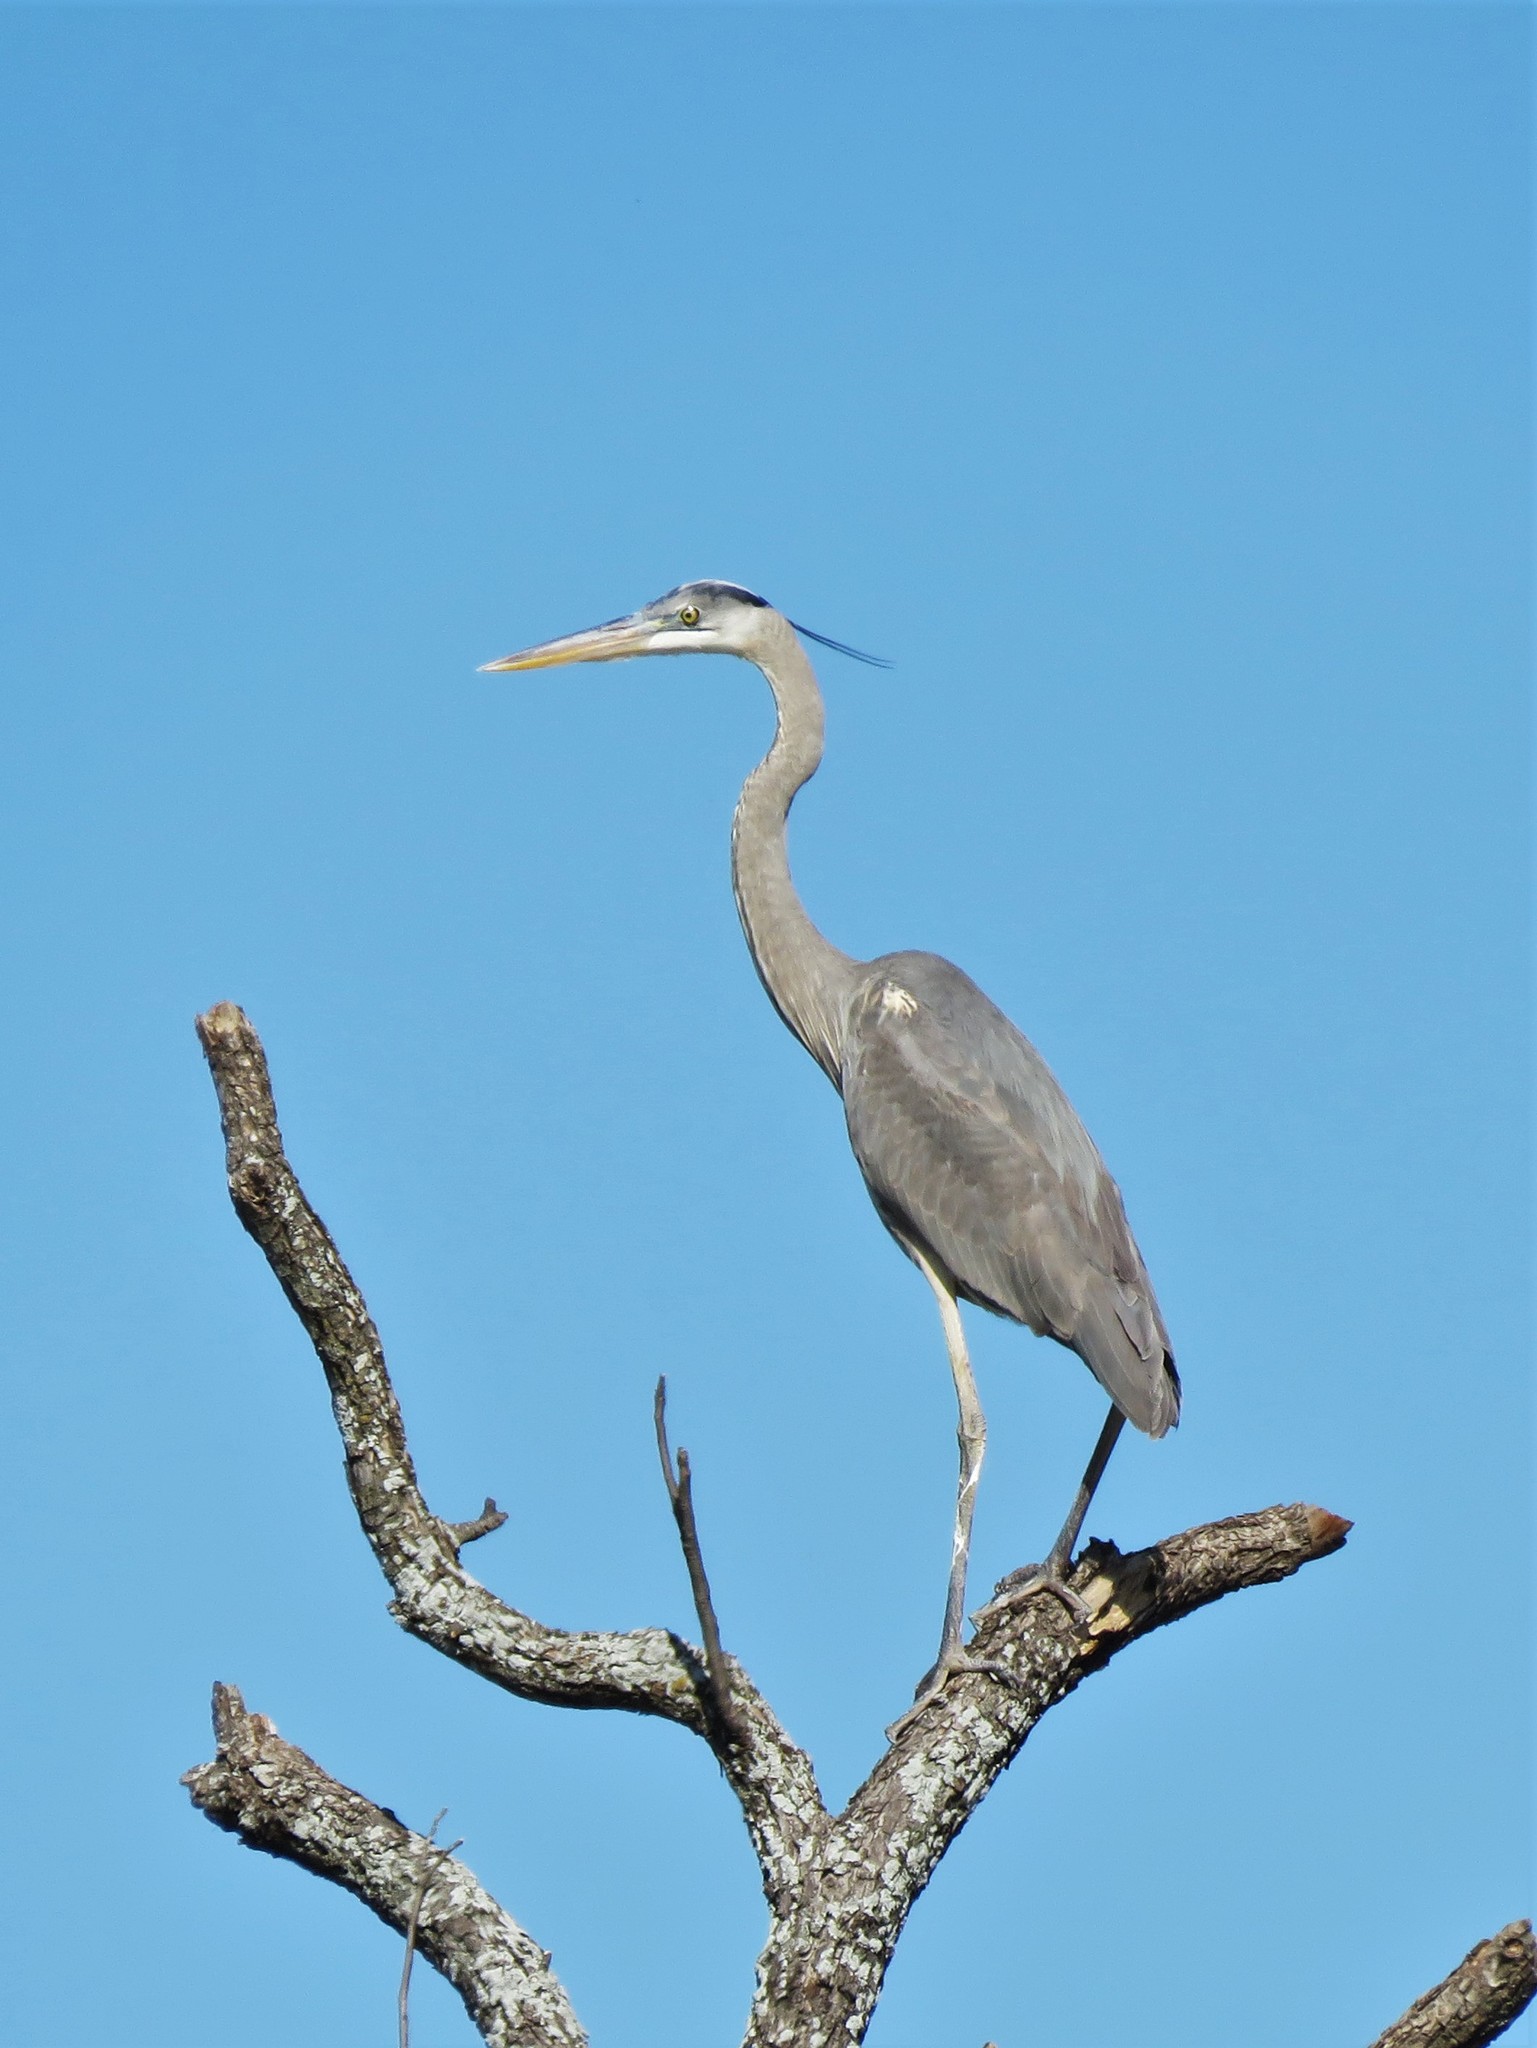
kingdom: Animalia
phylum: Chordata
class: Aves
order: Pelecaniformes
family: Ardeidae
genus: Ardea
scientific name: Ardea herodias
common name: Great blue heron
